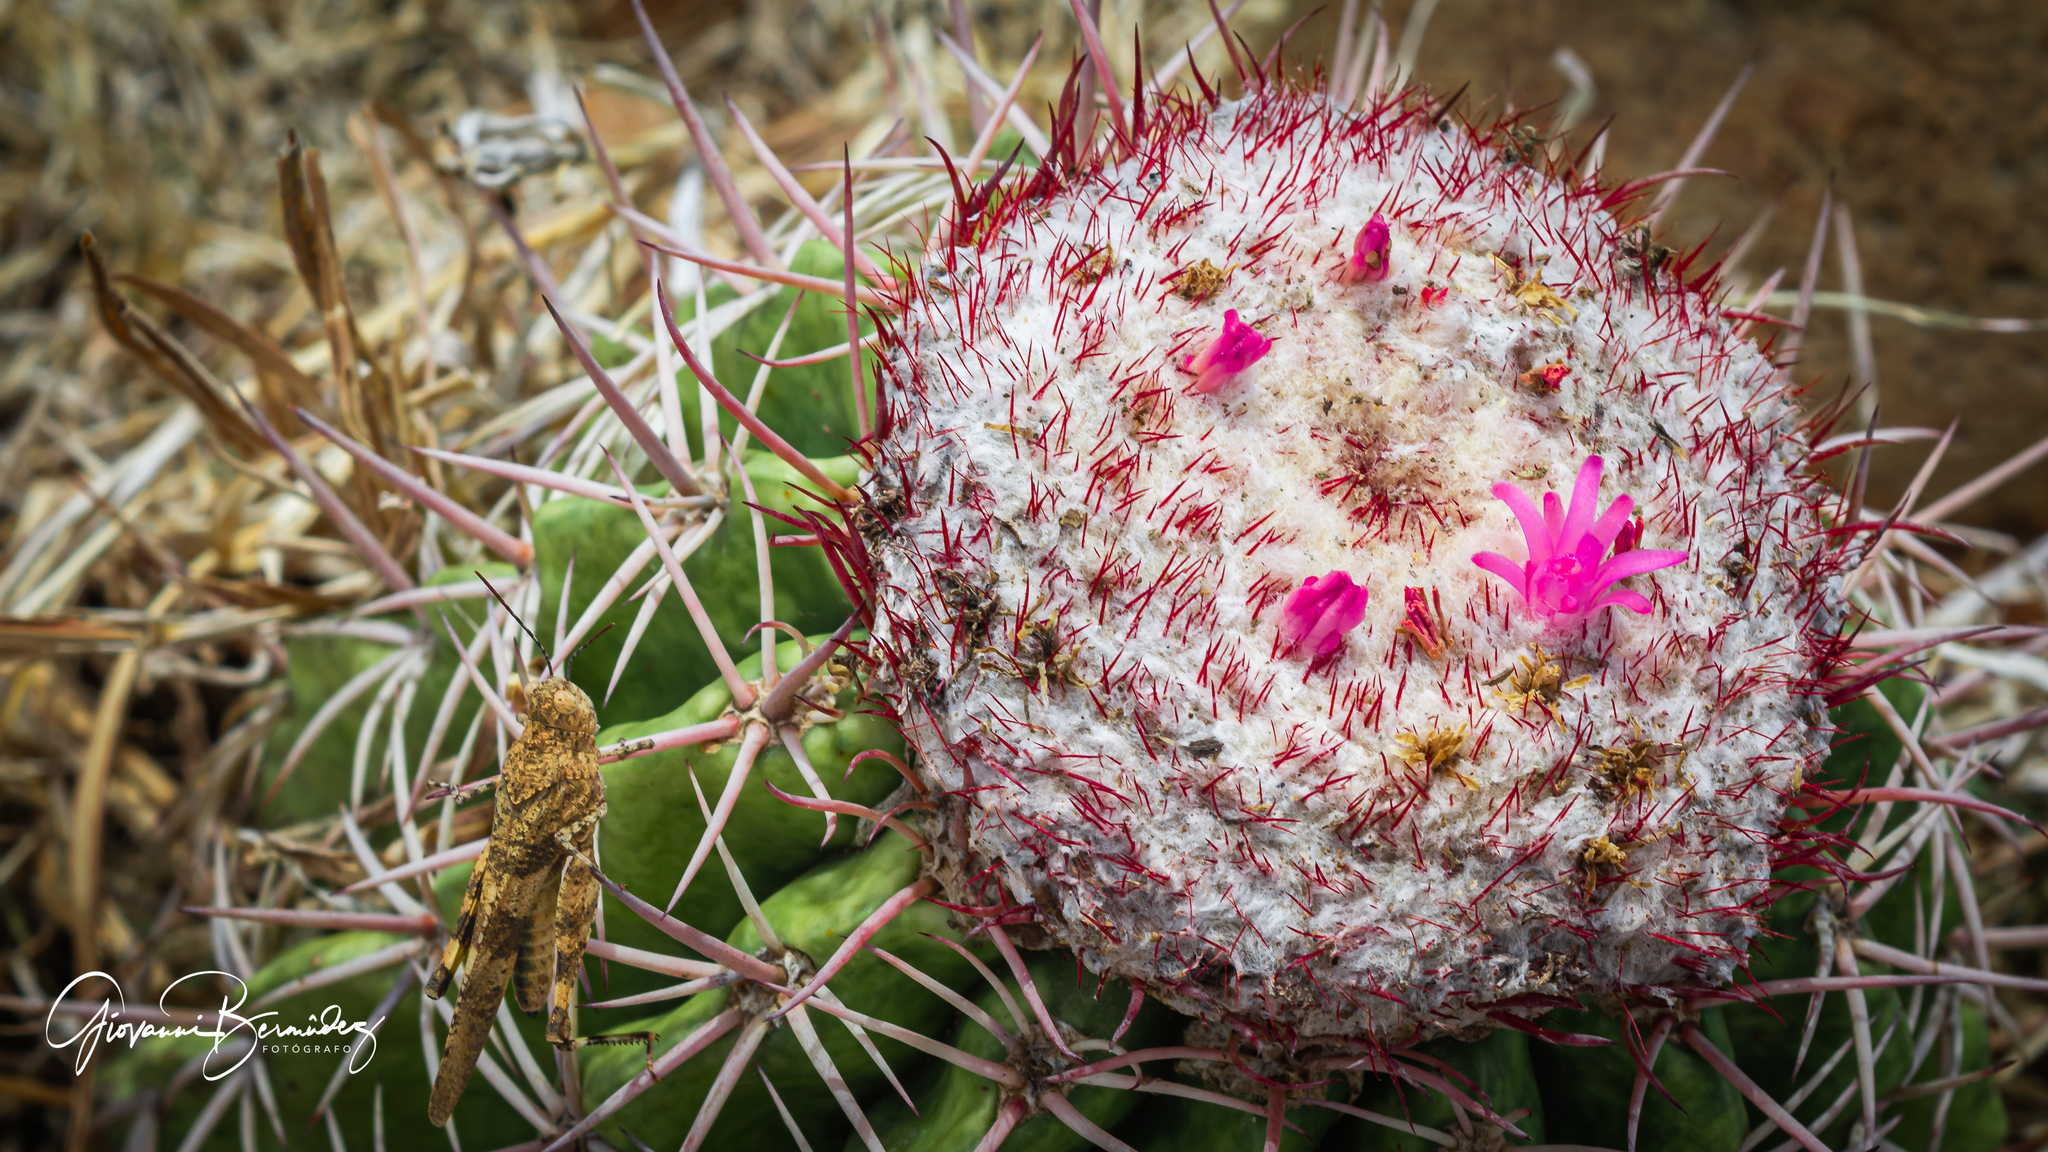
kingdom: Plantae
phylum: Tracheophyta
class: Magnoliopsida
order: Caryophyllales
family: Cactaceae
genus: Melocactus
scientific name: Melocactus curvispinus
